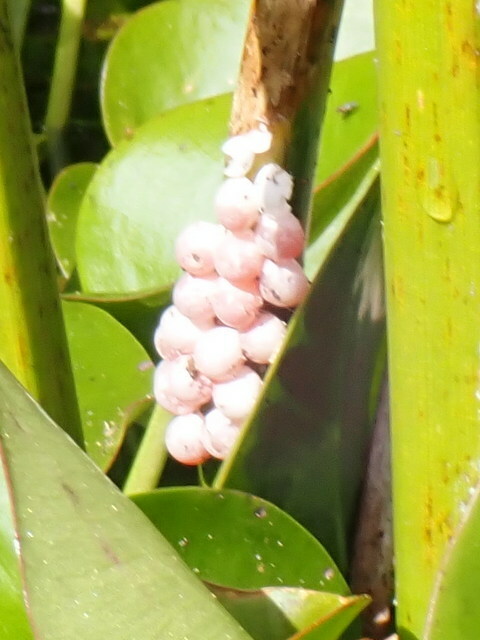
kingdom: Animalia
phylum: Mollusca
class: Gastropoda
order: Architaenioglossa
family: Ampullariidae
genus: Pomacea
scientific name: Pomacea paludosa
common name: Florida applesnail
